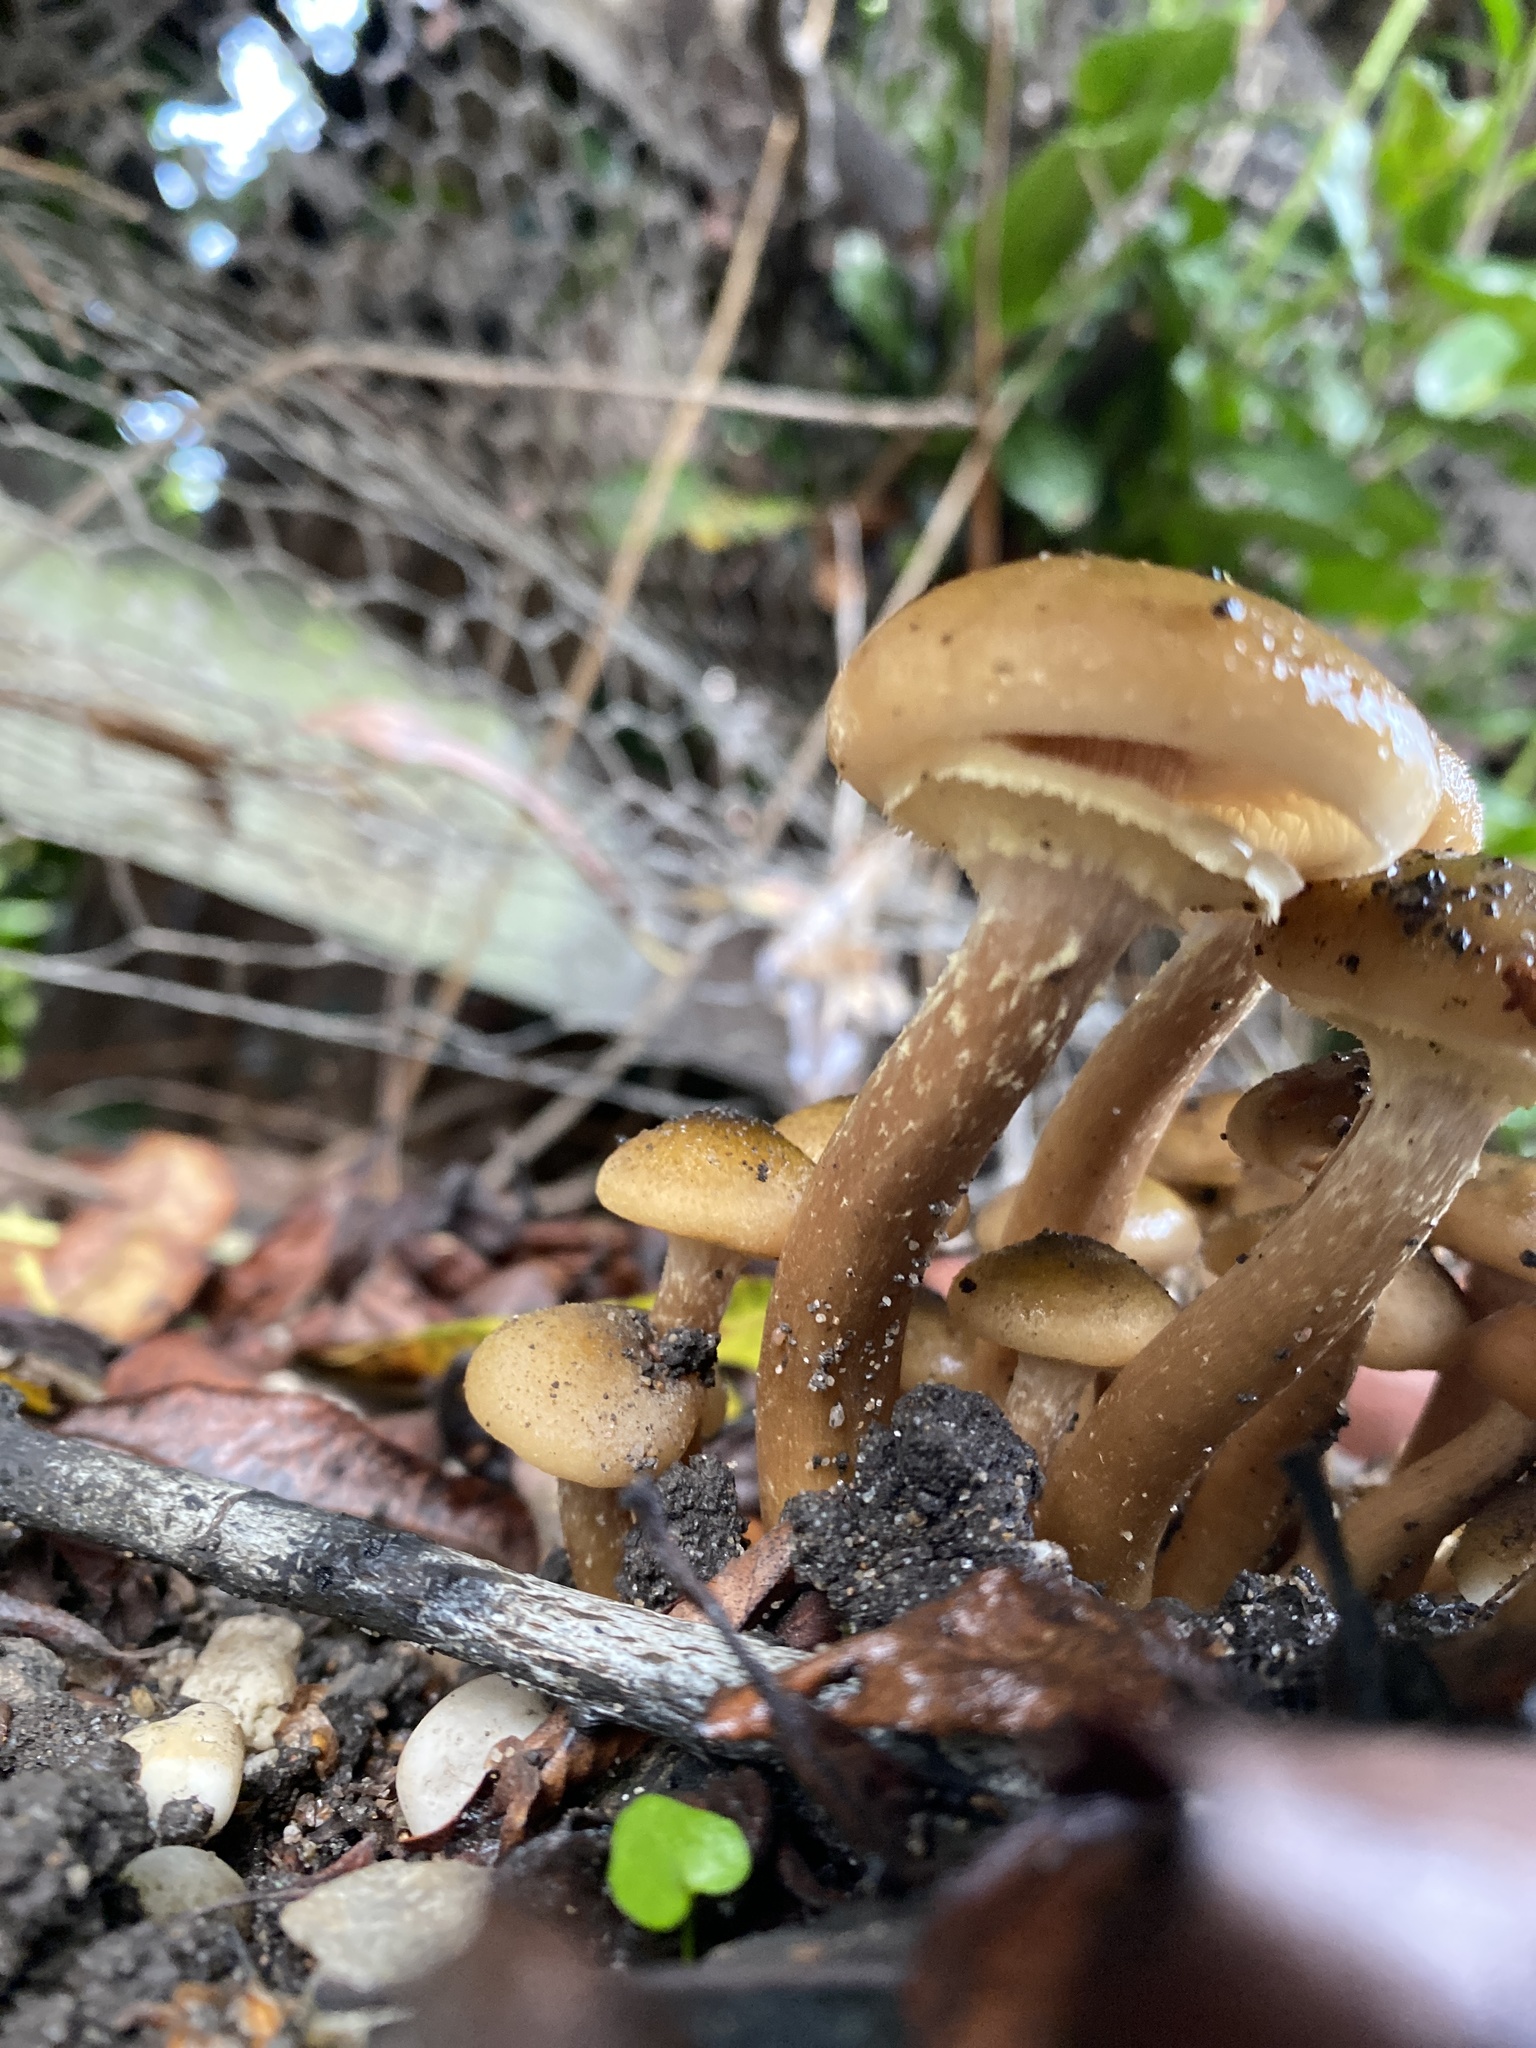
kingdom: Fungi
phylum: Basidiomycota
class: Agaricomycetes
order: Agaricales
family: Physalacriaceae
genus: Armillaria
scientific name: Armillaria mellea
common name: Honey fungus
